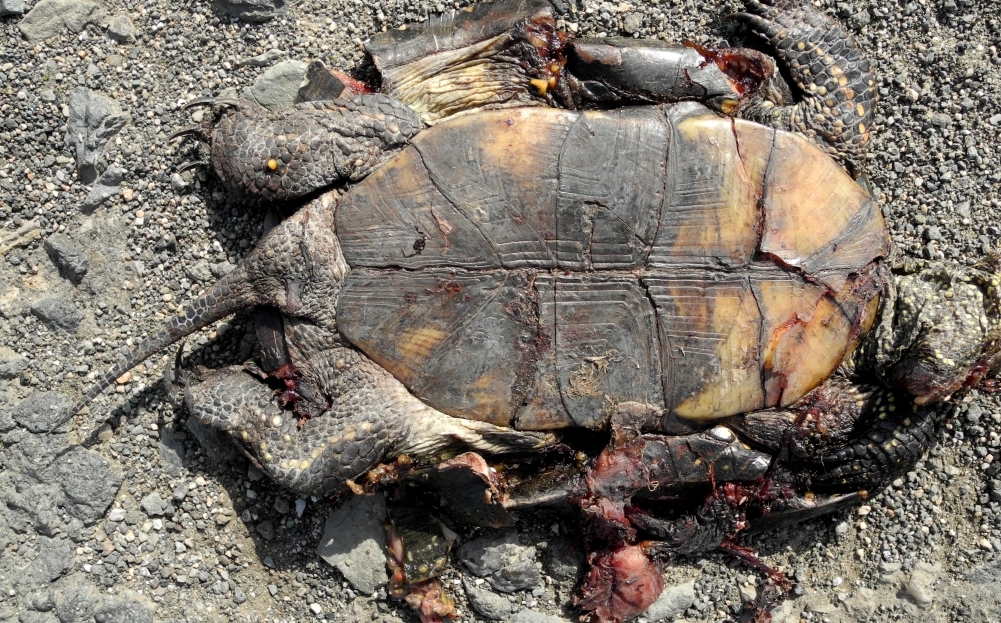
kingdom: Animalia
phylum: Chordata
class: Testudines
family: Emydidae
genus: Emys
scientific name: Emys orbicularis
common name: European pond turtle
